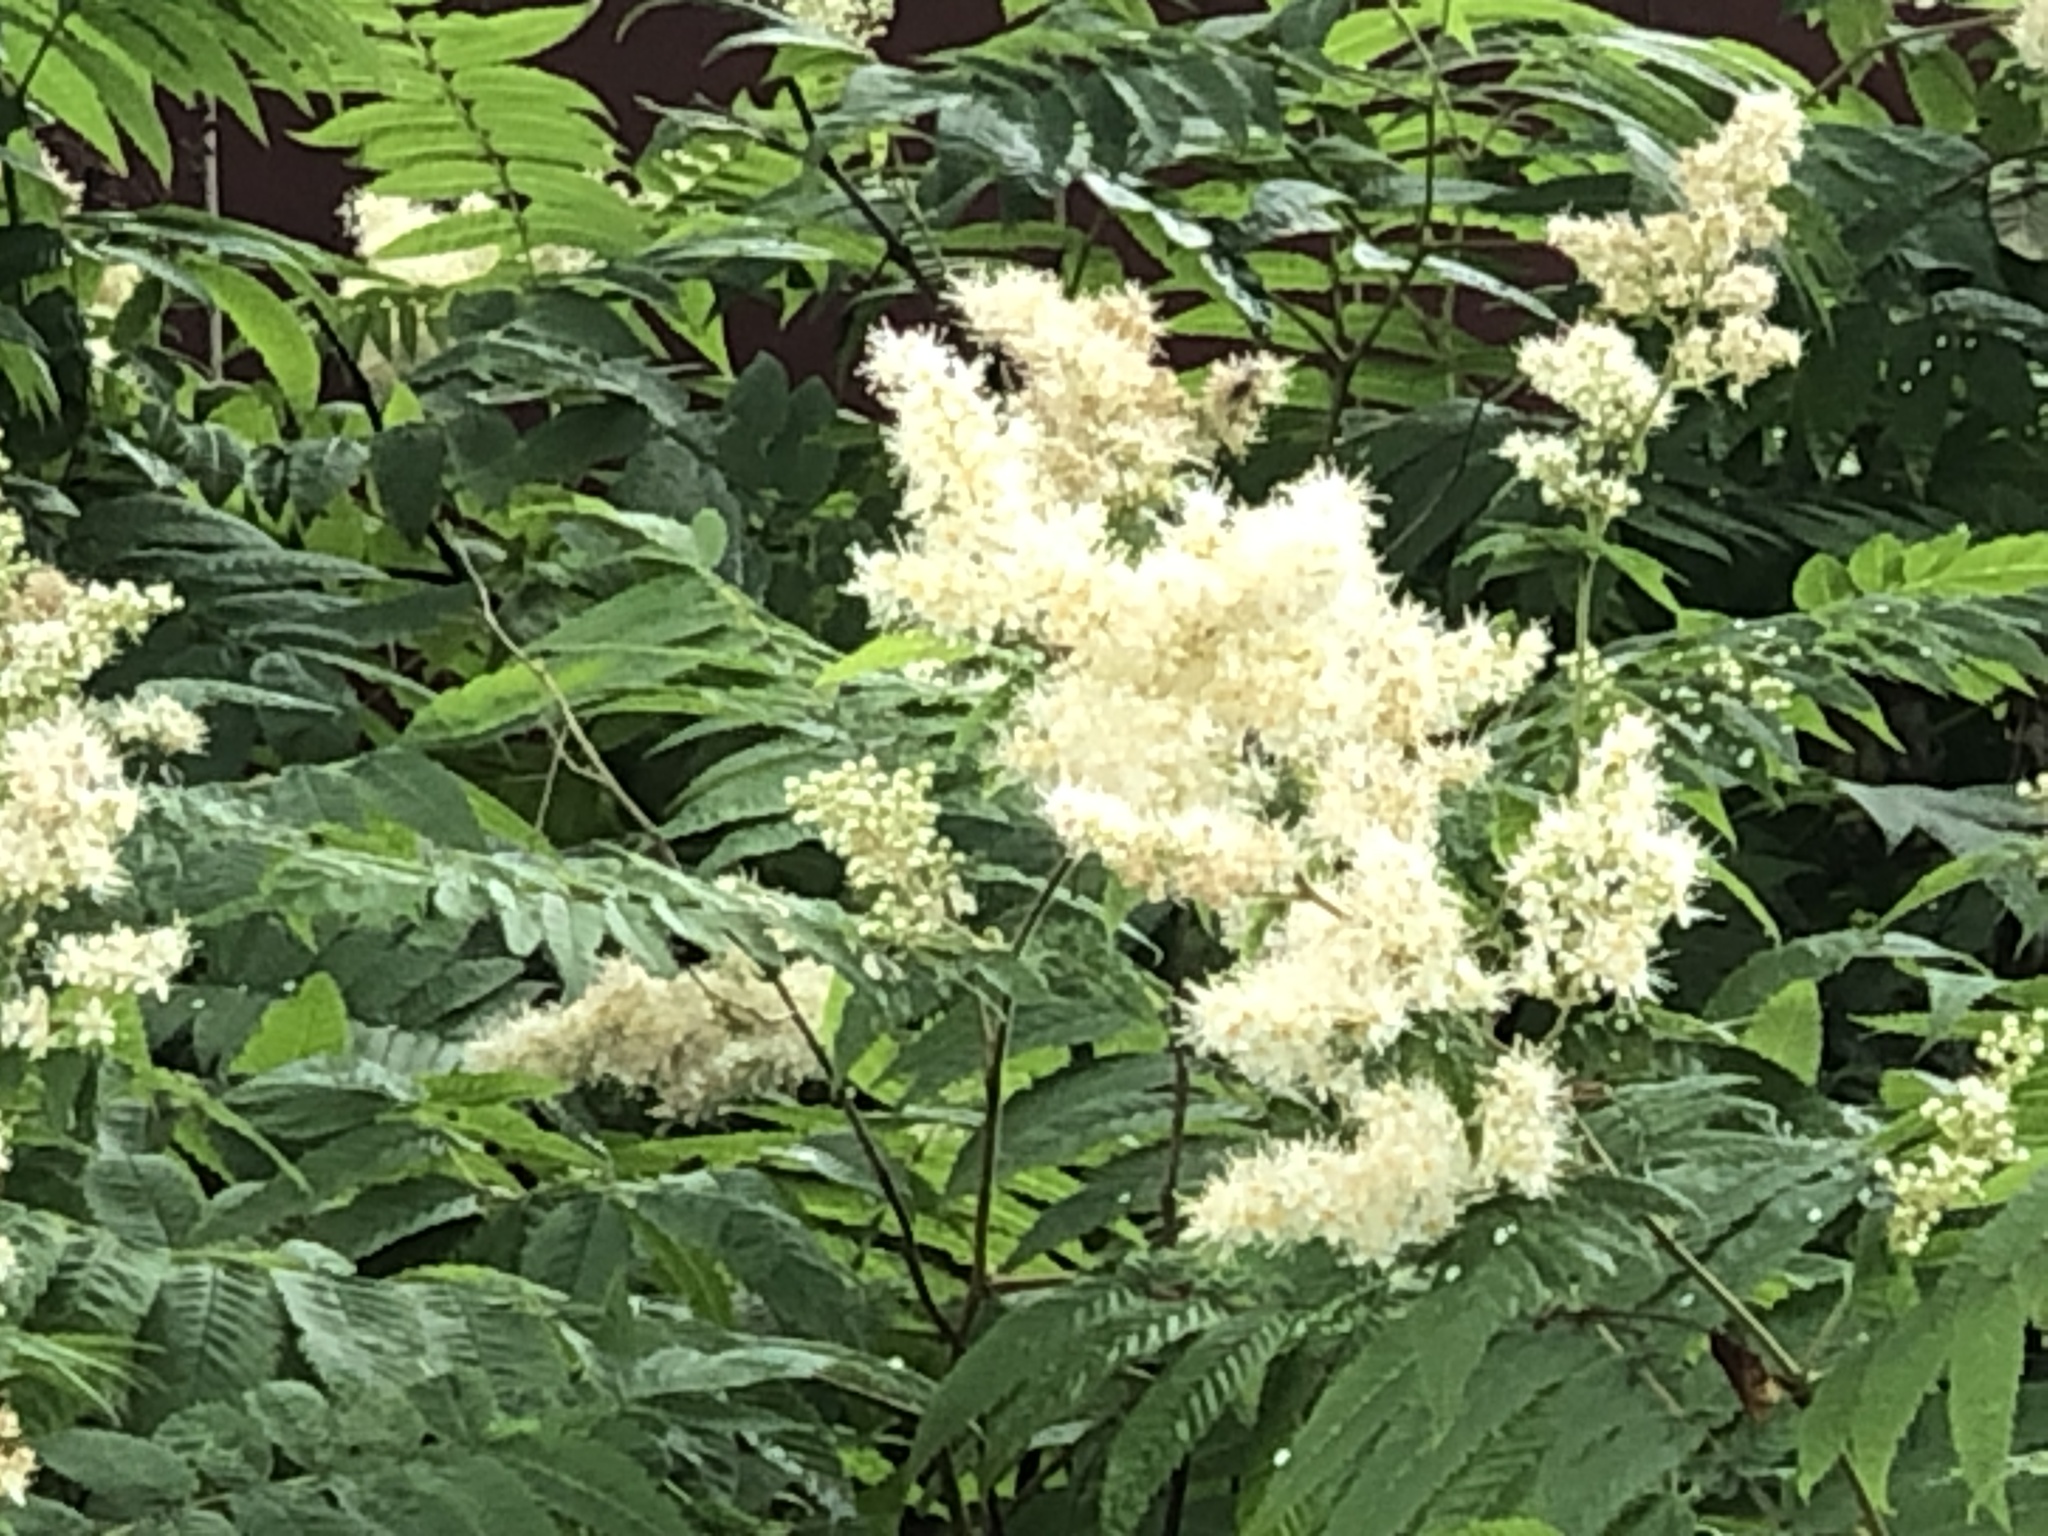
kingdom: Plantae
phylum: Tracheophyta
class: Magnoliopsida
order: Rosales
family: Rosaceae
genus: Sorbaria
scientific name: Sorbaria sorbifolia
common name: False spiraea
